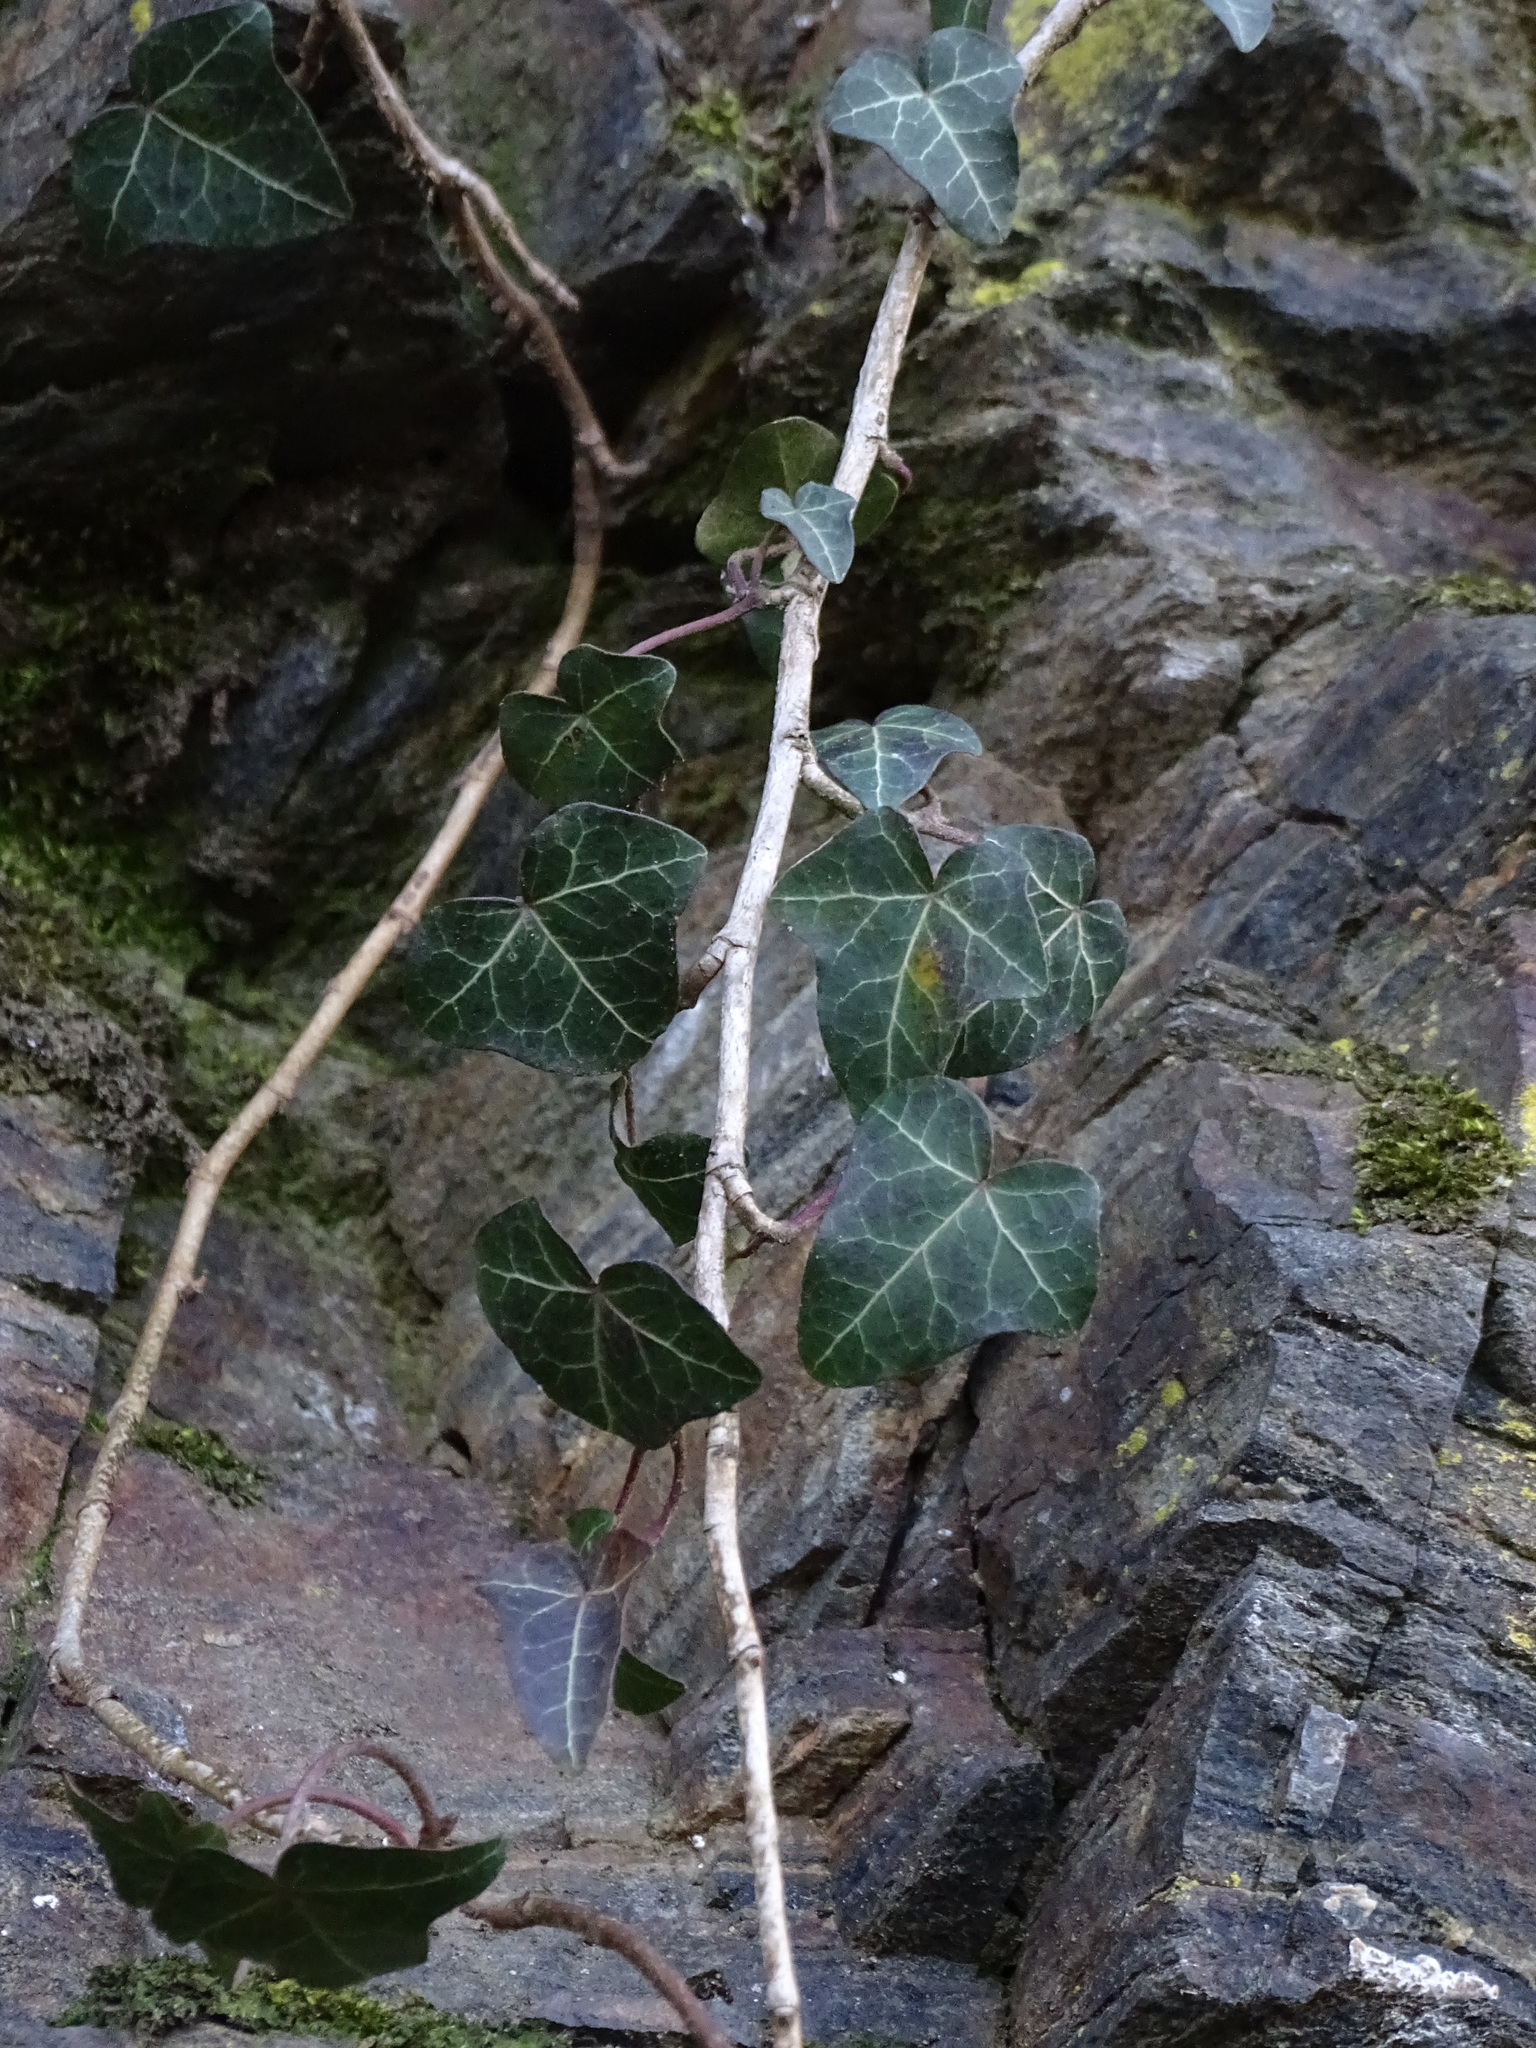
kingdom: Plantae
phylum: Tracheophyta
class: Magnoliopsida
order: Apiales
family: Araliaceae
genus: Hedera
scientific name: Hedera helix
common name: Ivy
